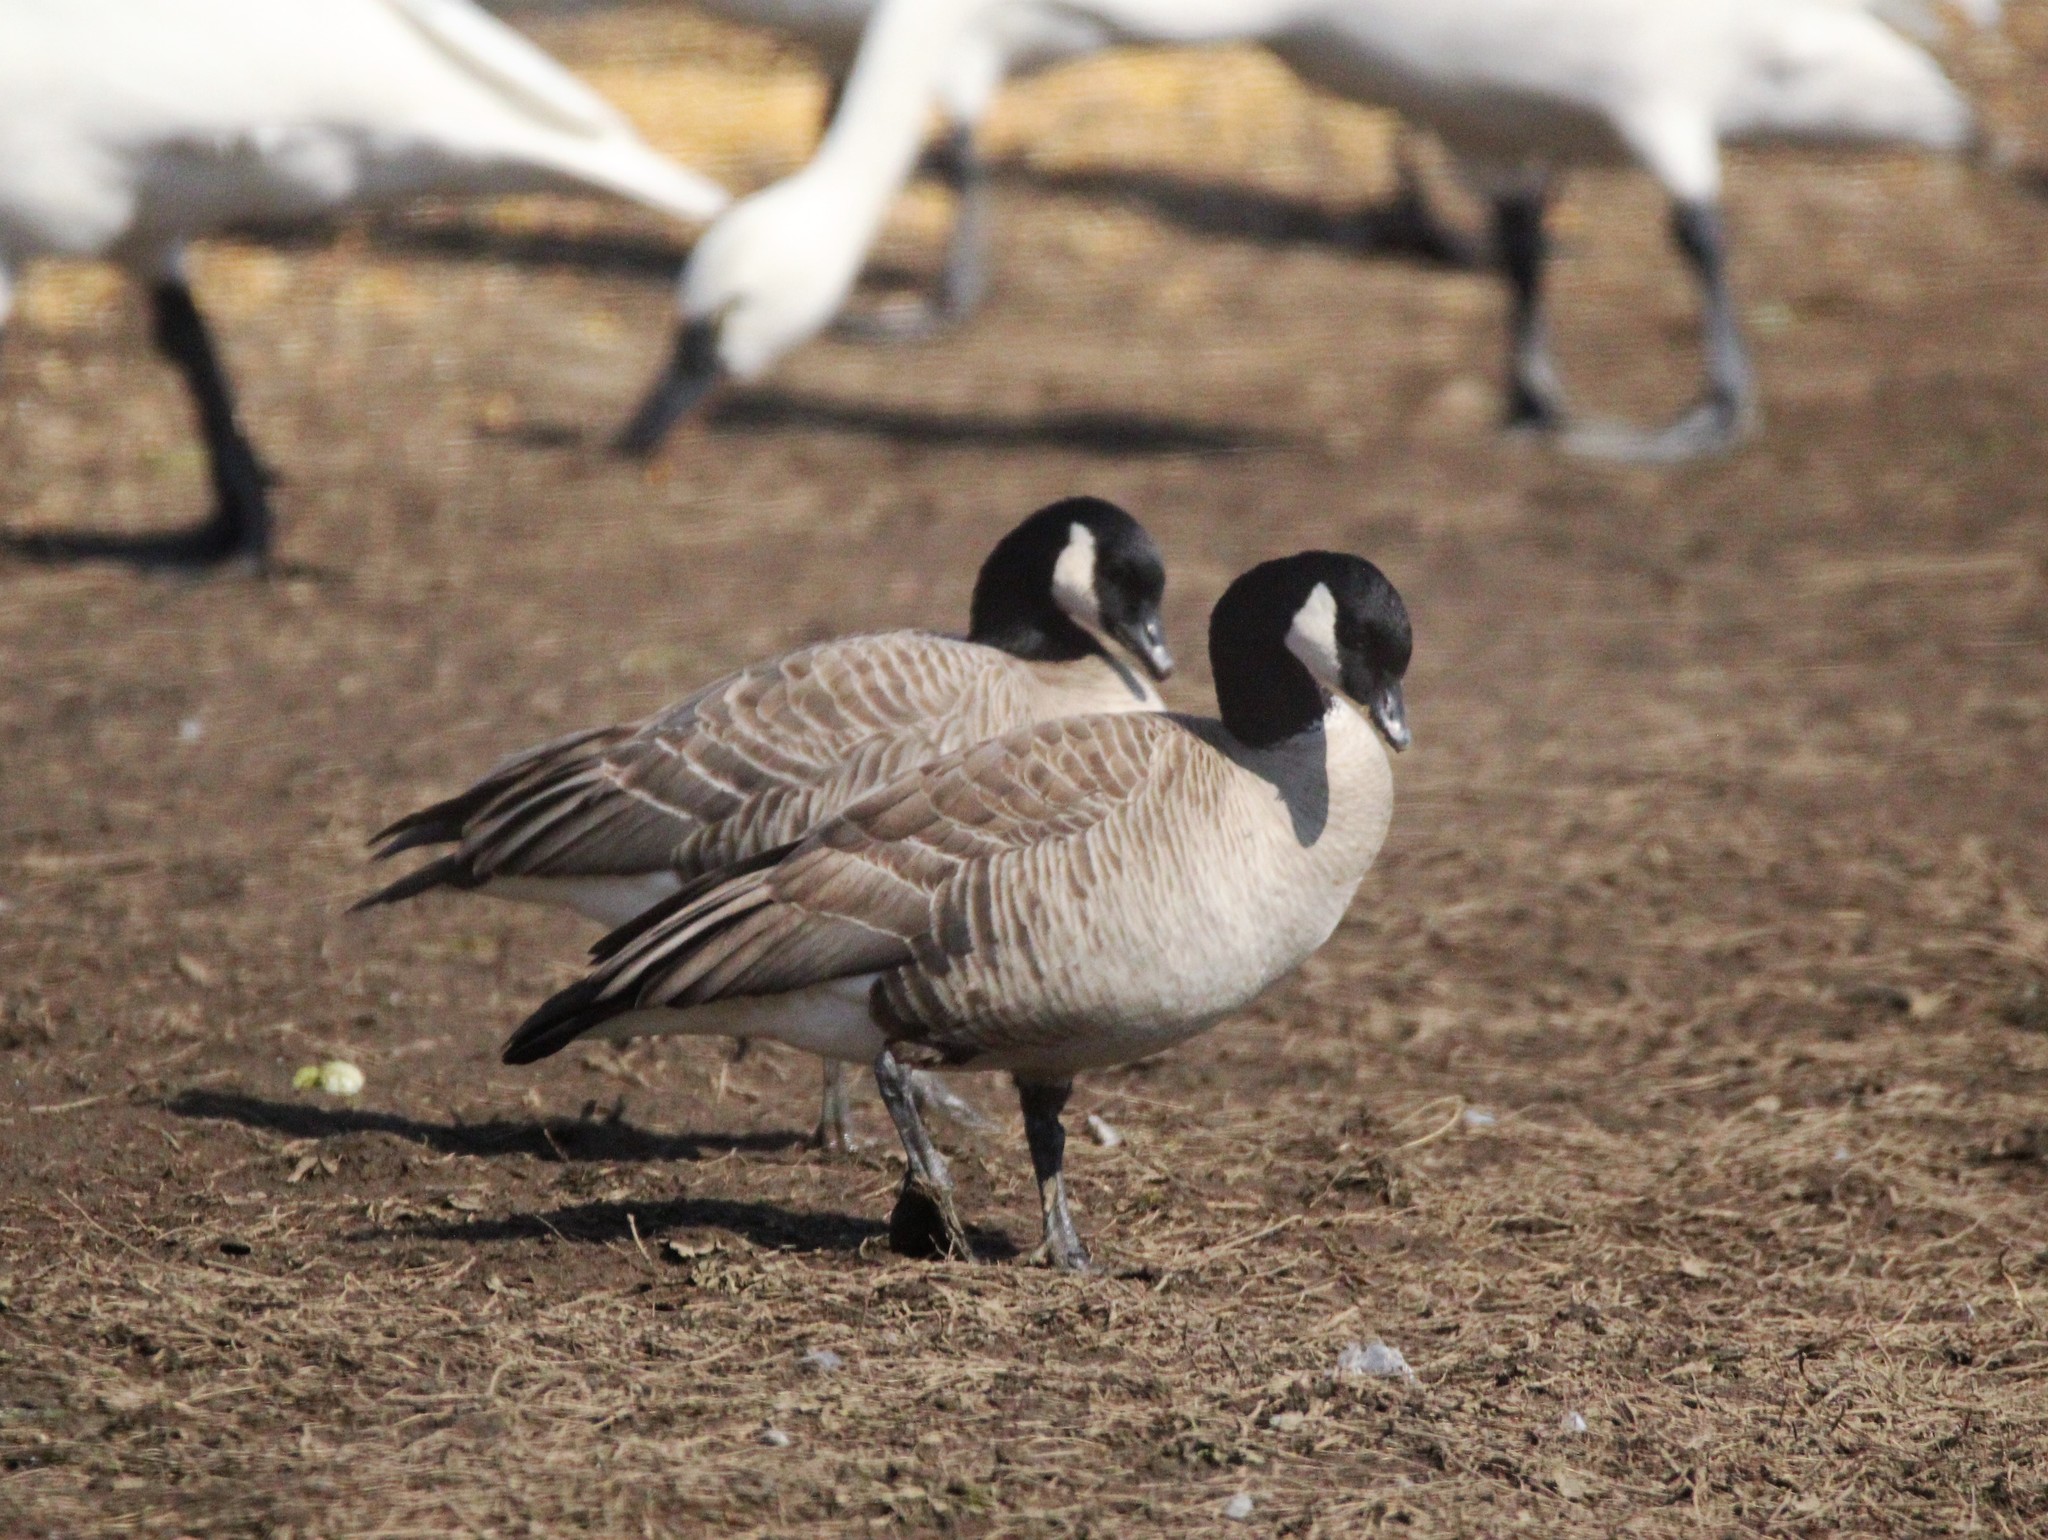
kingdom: Animalia
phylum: Chordata
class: Aves
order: Anseriformes
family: Anatidae
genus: Branta
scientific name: Branta hutchinsii
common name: Cackling goose
